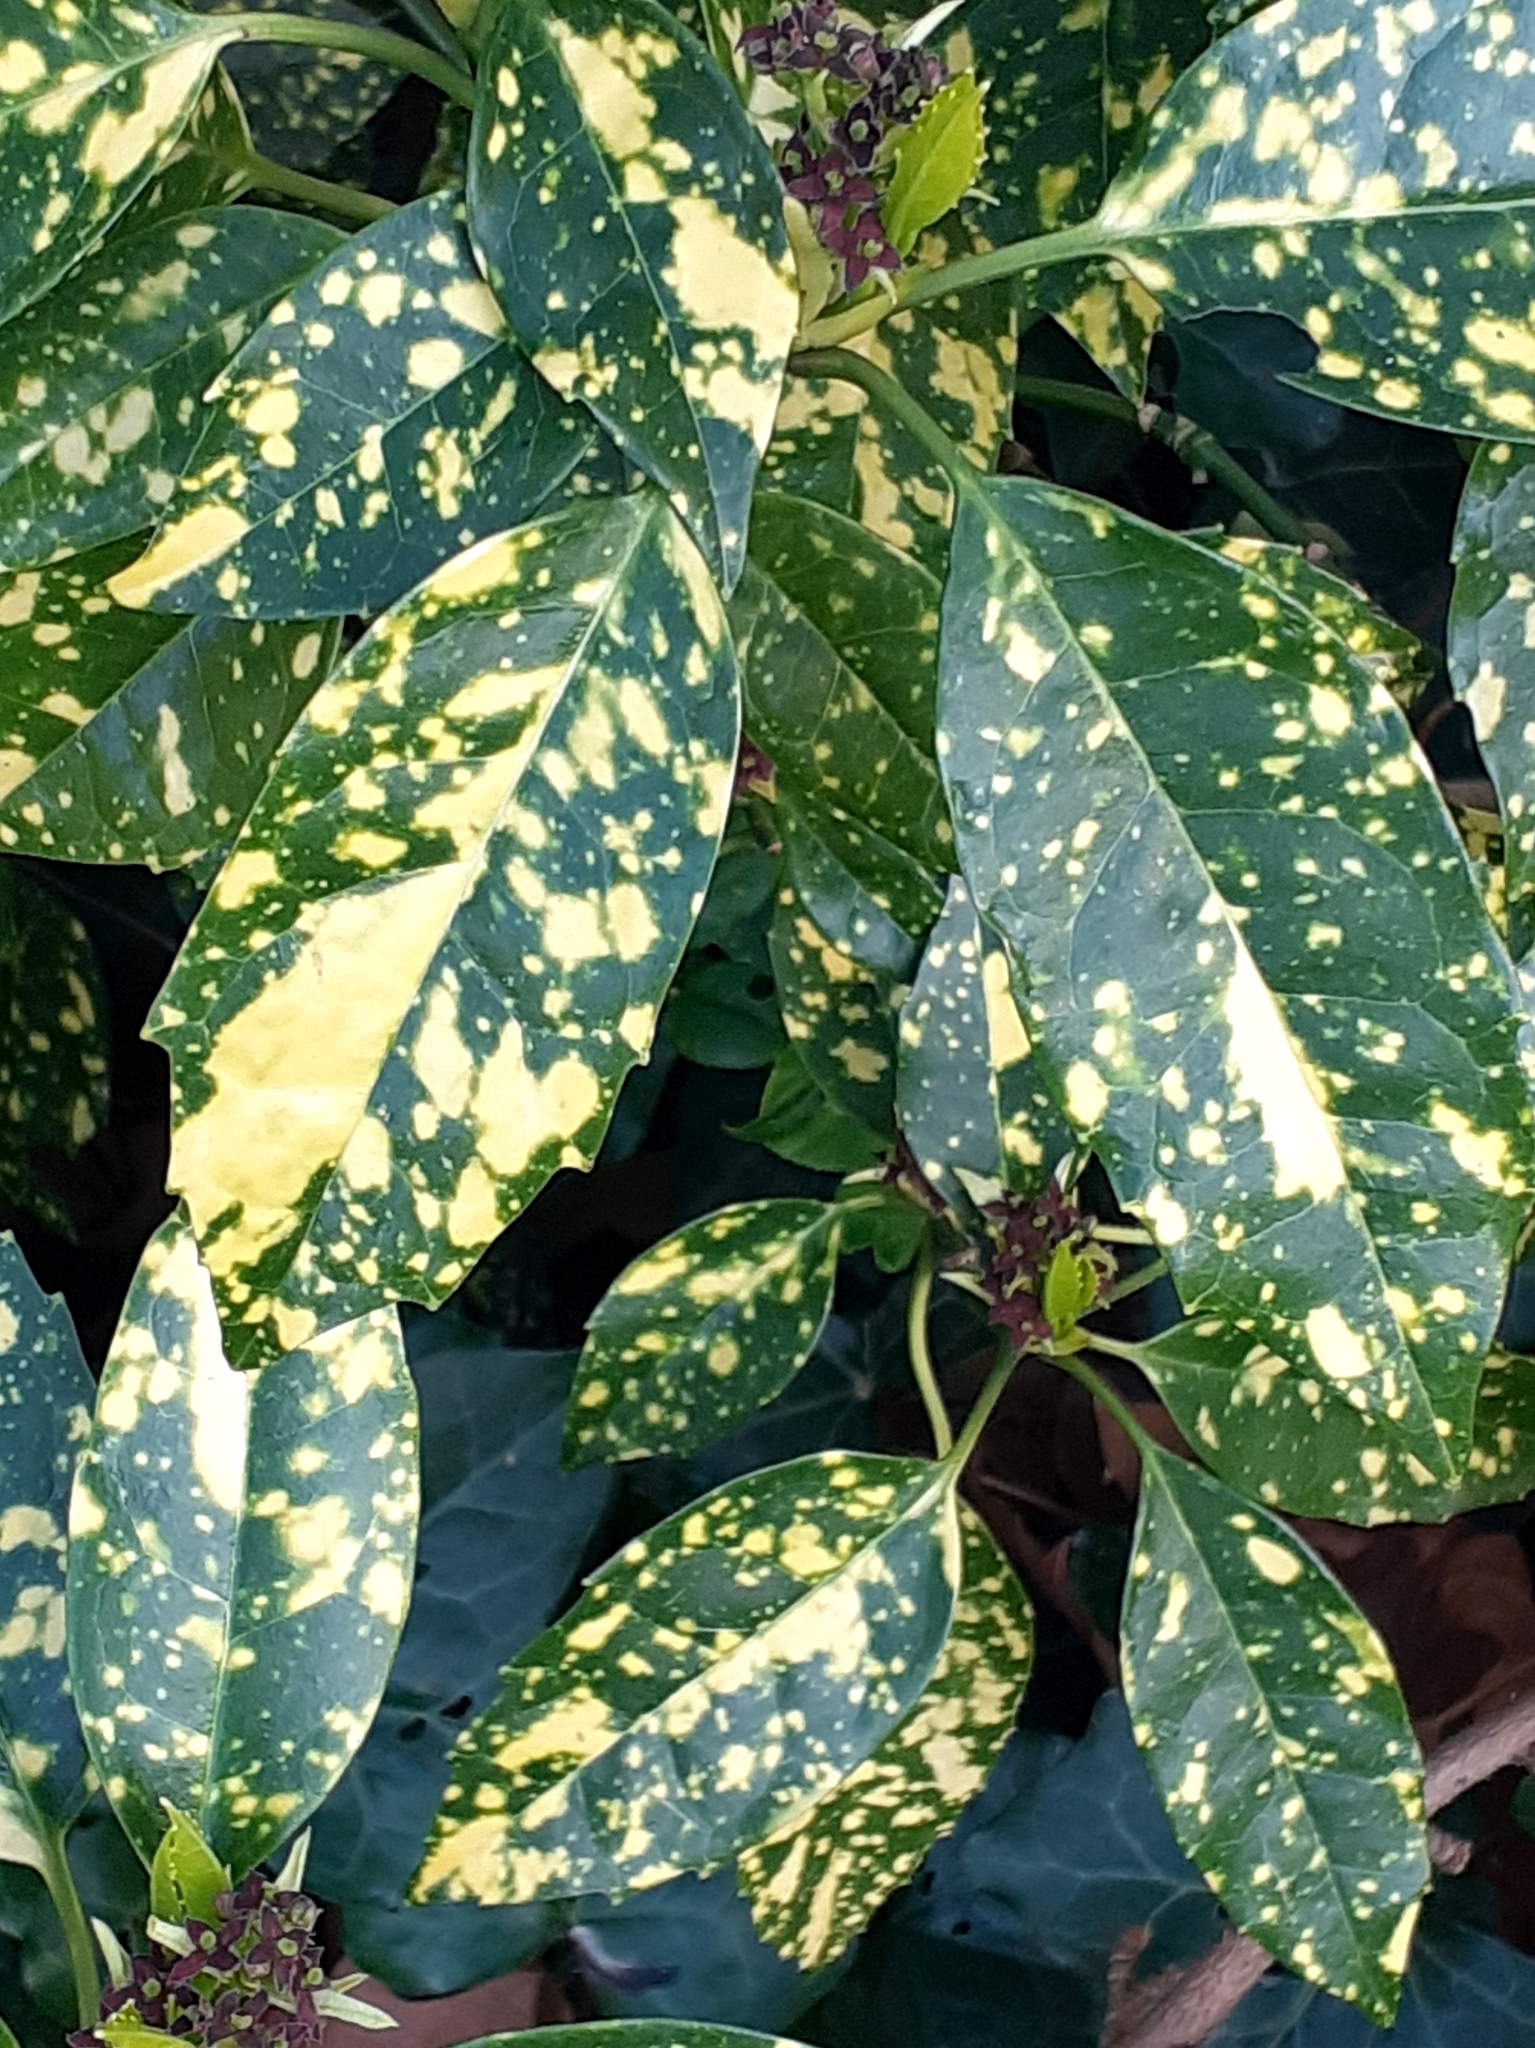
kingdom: Plantae
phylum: Tracheophyta
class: Magnoliopsida
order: Garryales
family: Garryaceae
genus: Aucuba
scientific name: Aucuba japonica
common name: Spotted-laurel
